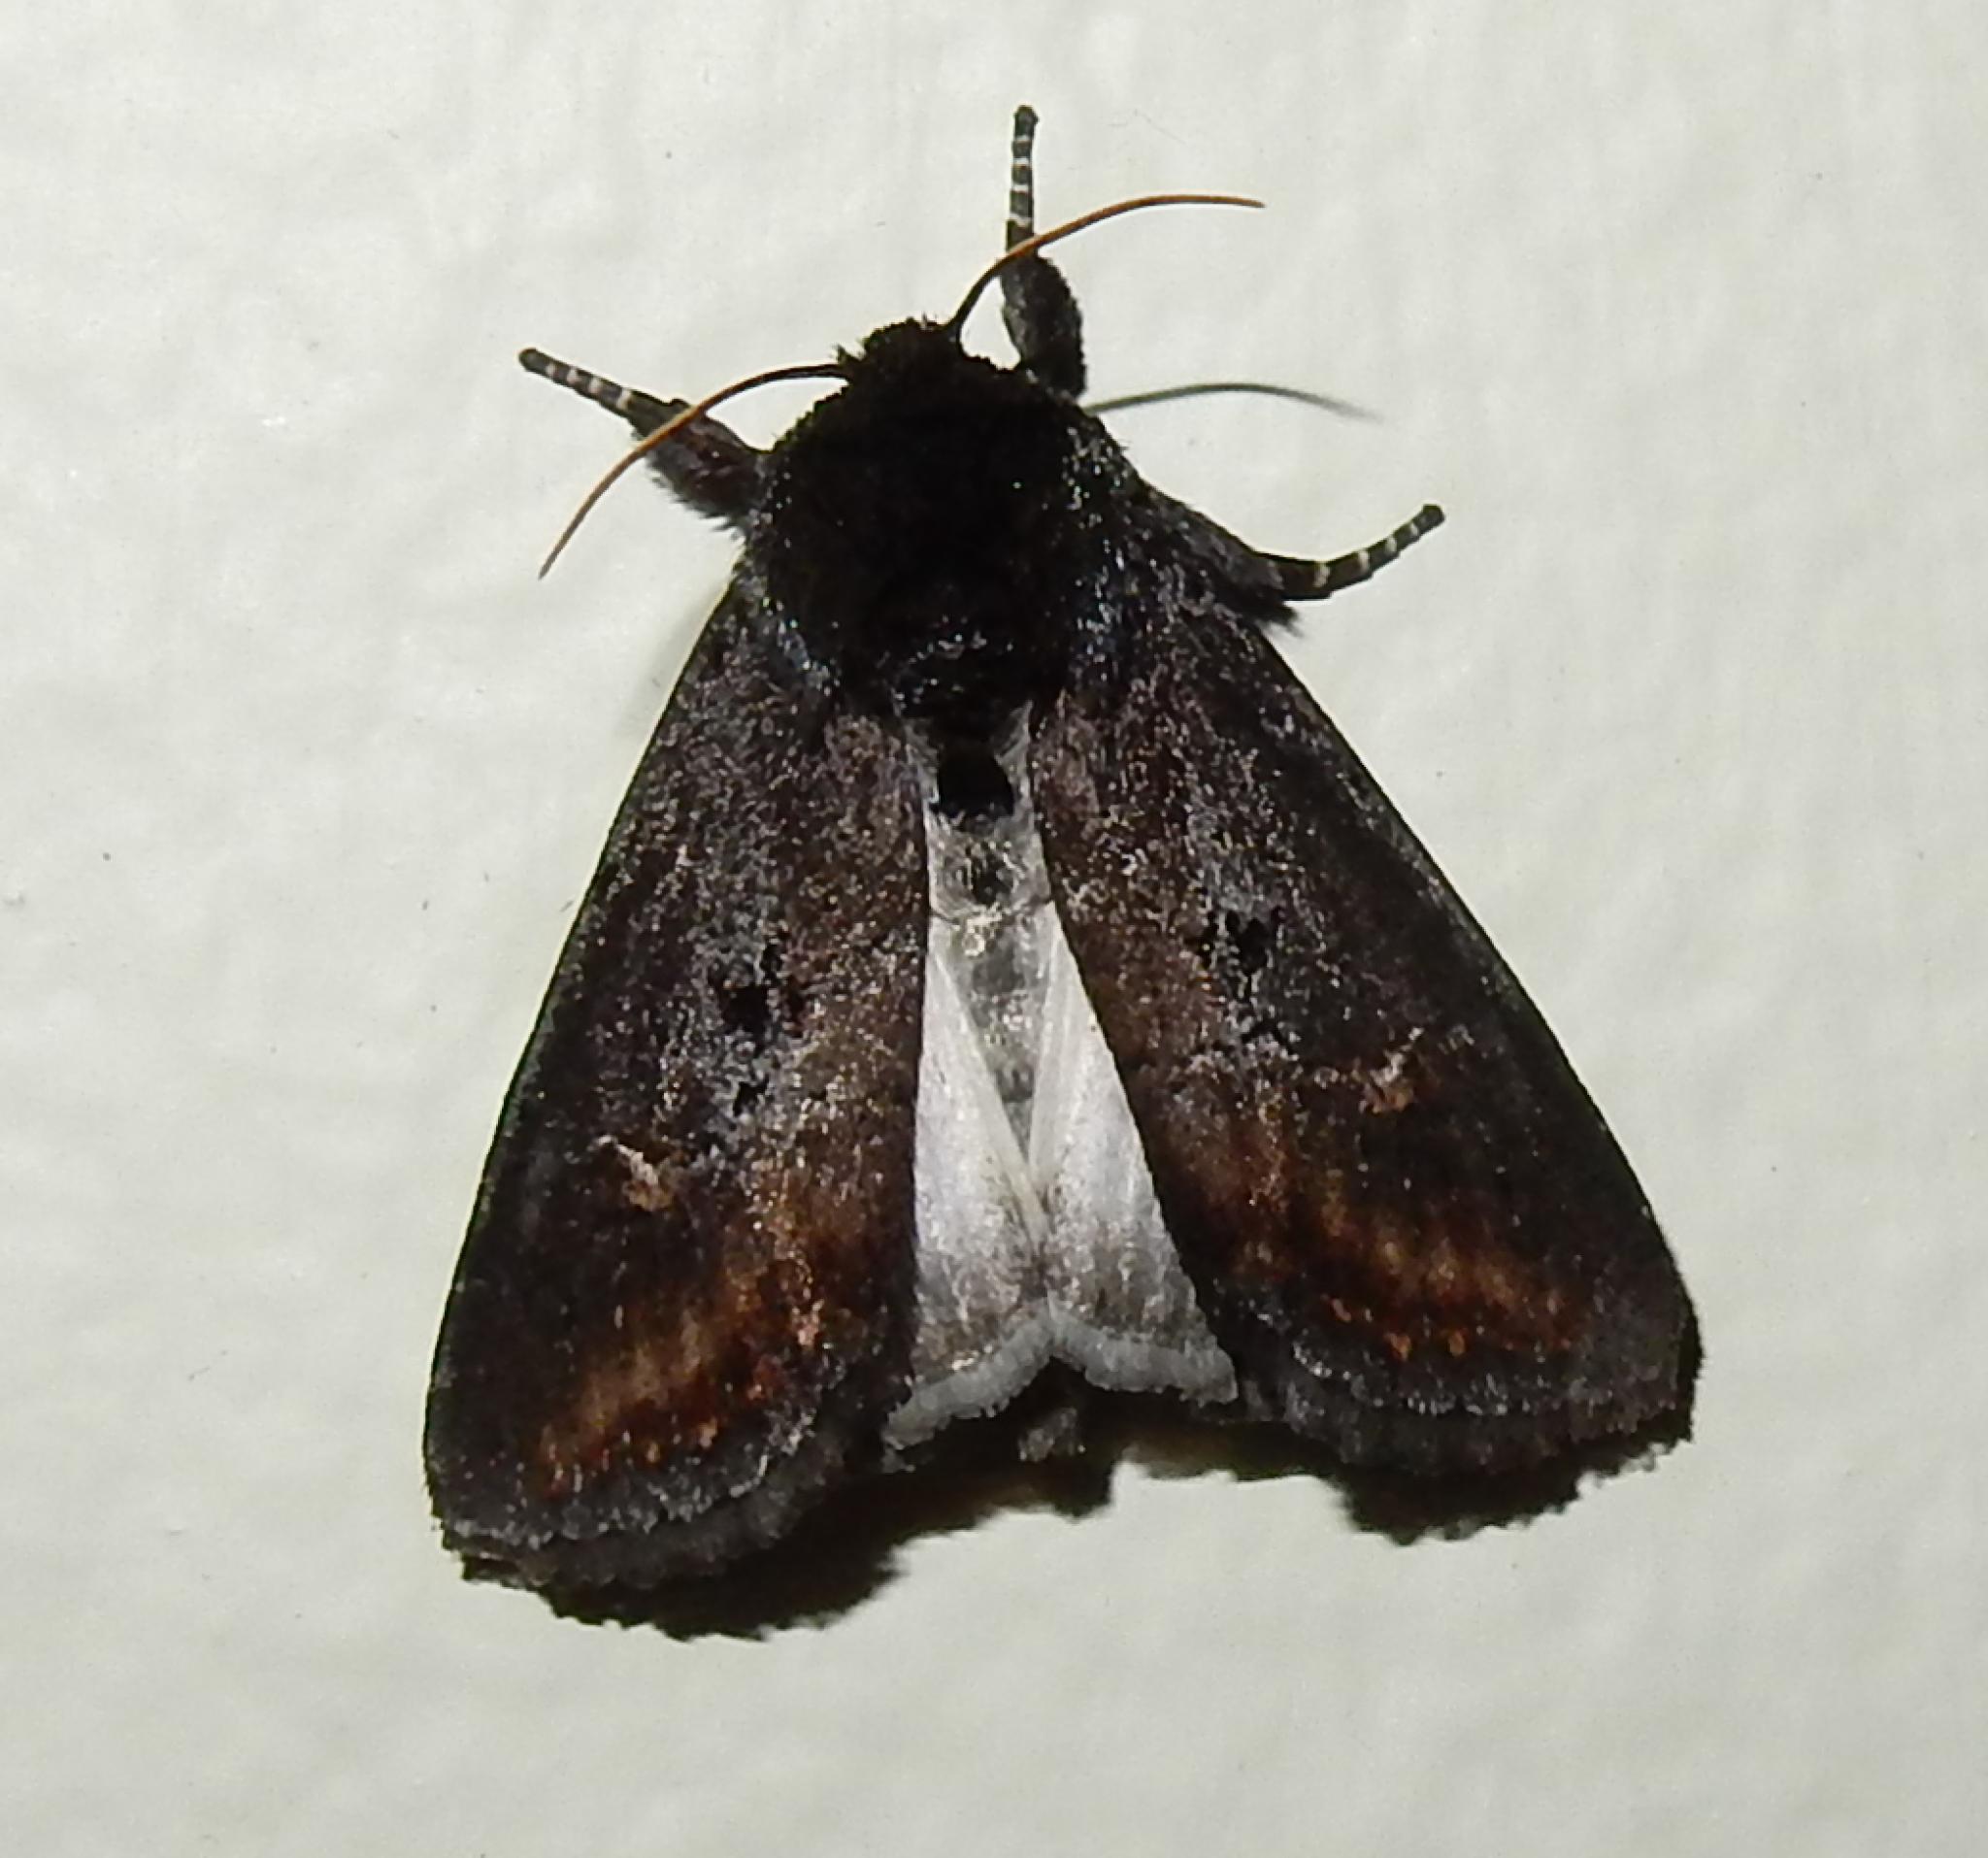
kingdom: Animalia
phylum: Arthropoda
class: Insecta
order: Lepidoptera
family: Noctuidae
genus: Brithys
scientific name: Brithys crini
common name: Kew arches
